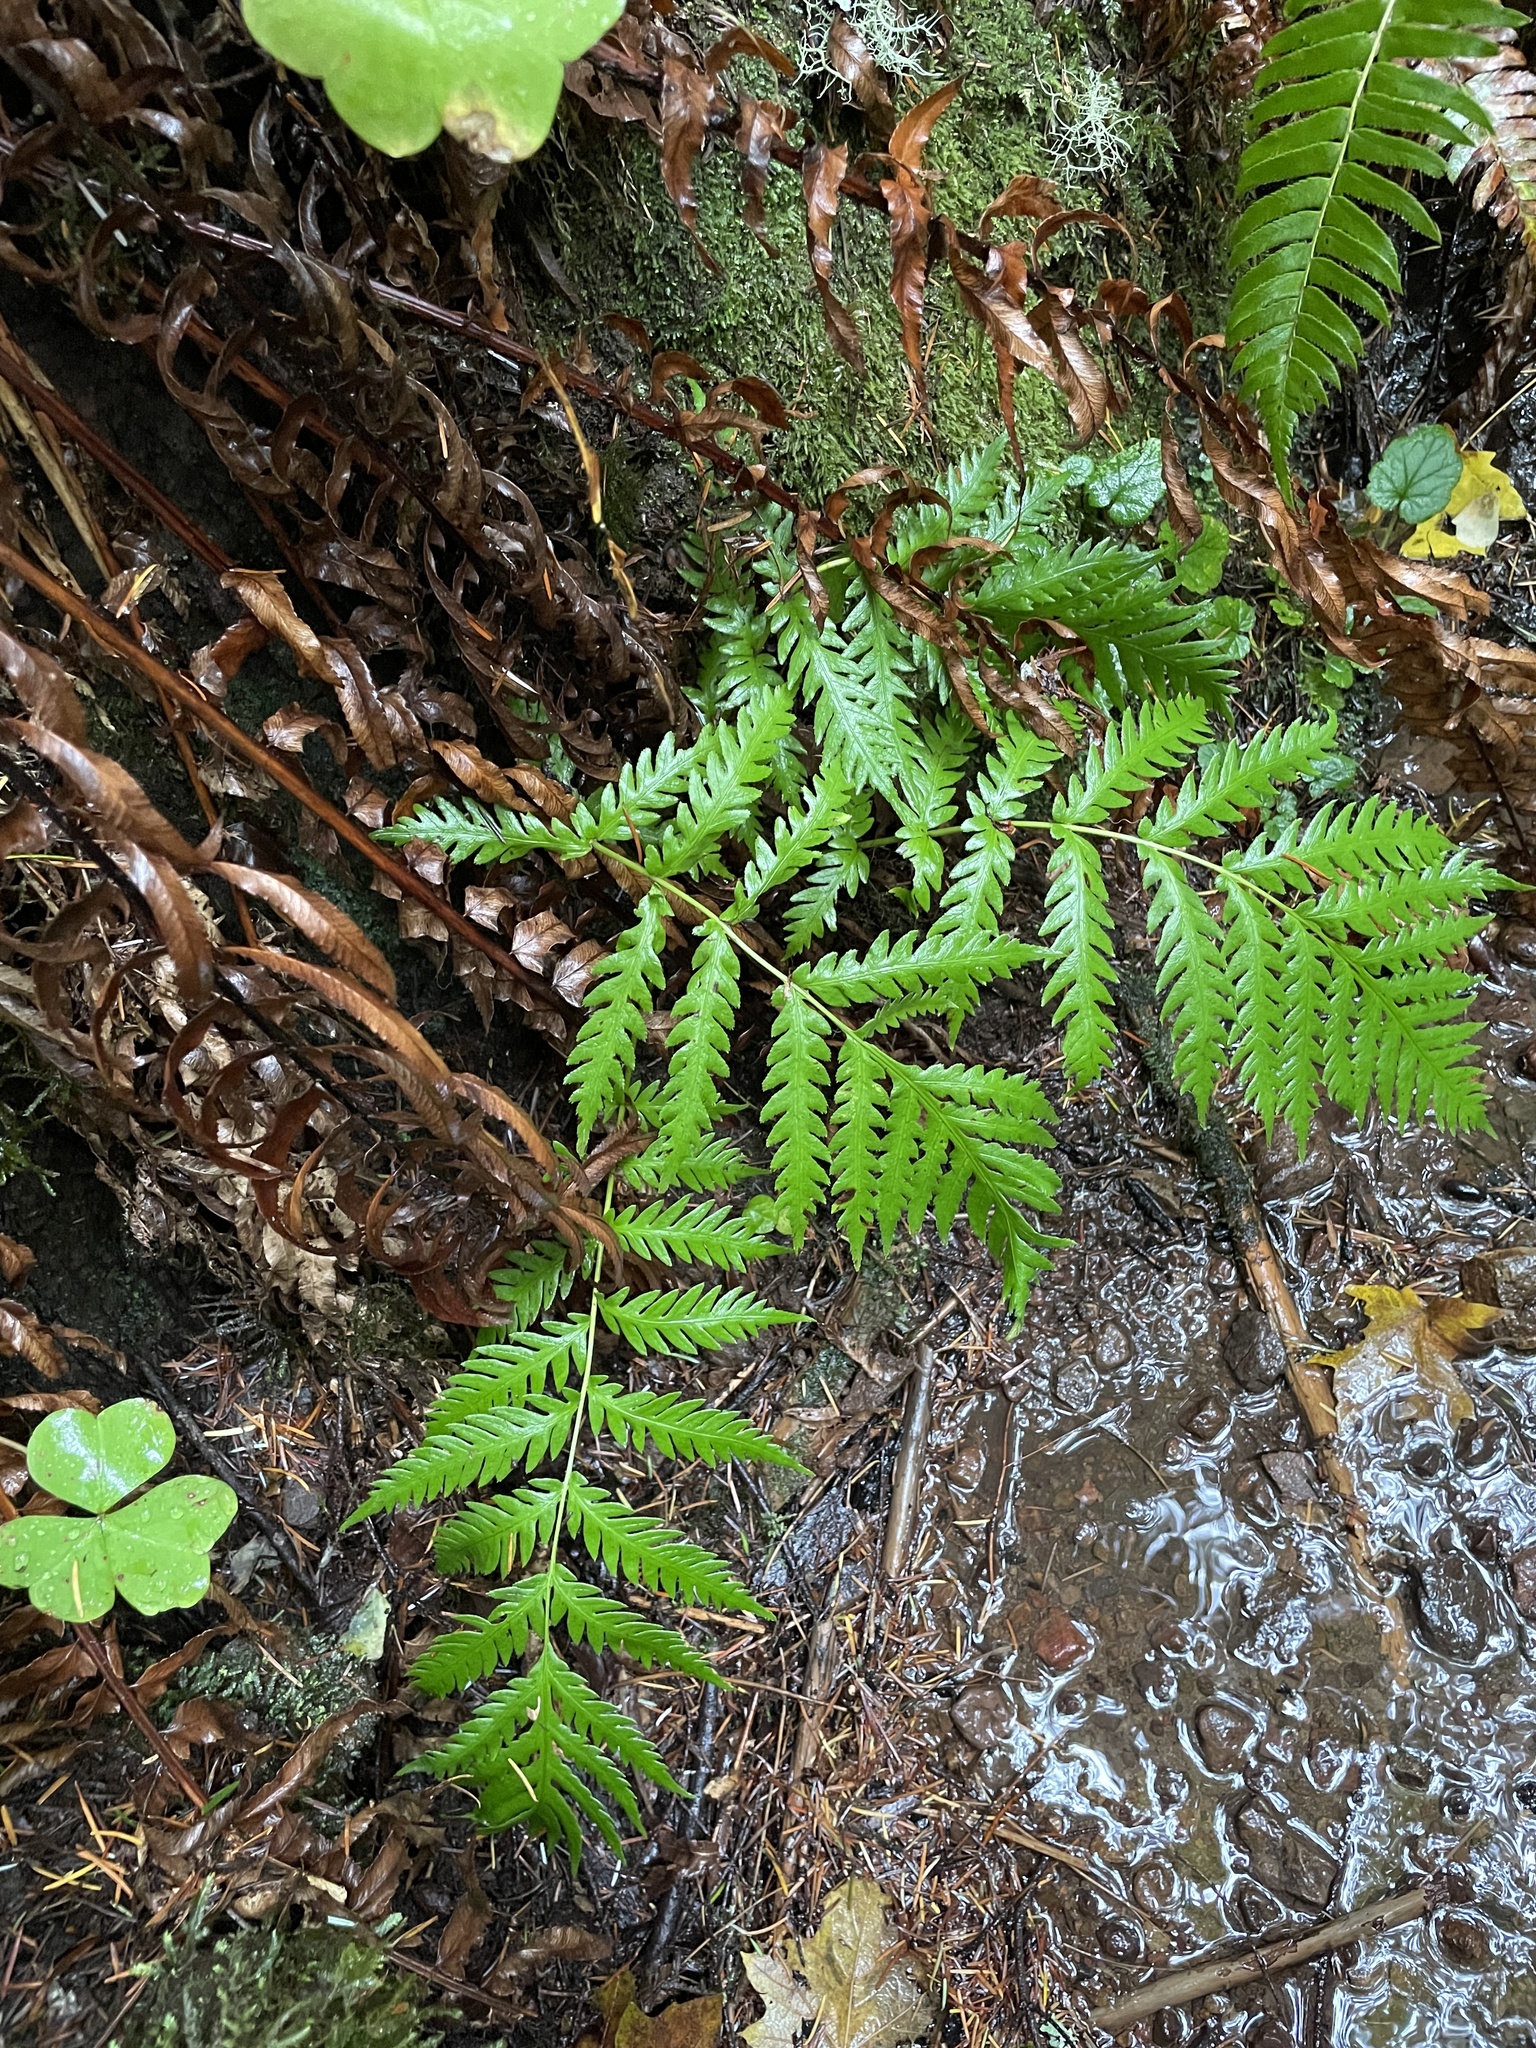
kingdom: Plantae
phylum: Tracheophyta
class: Polypodiopsida
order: Polypodiales
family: Blechnaceae
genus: Woodwardia
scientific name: Woodwardia fimbriata
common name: Giant chain fern
